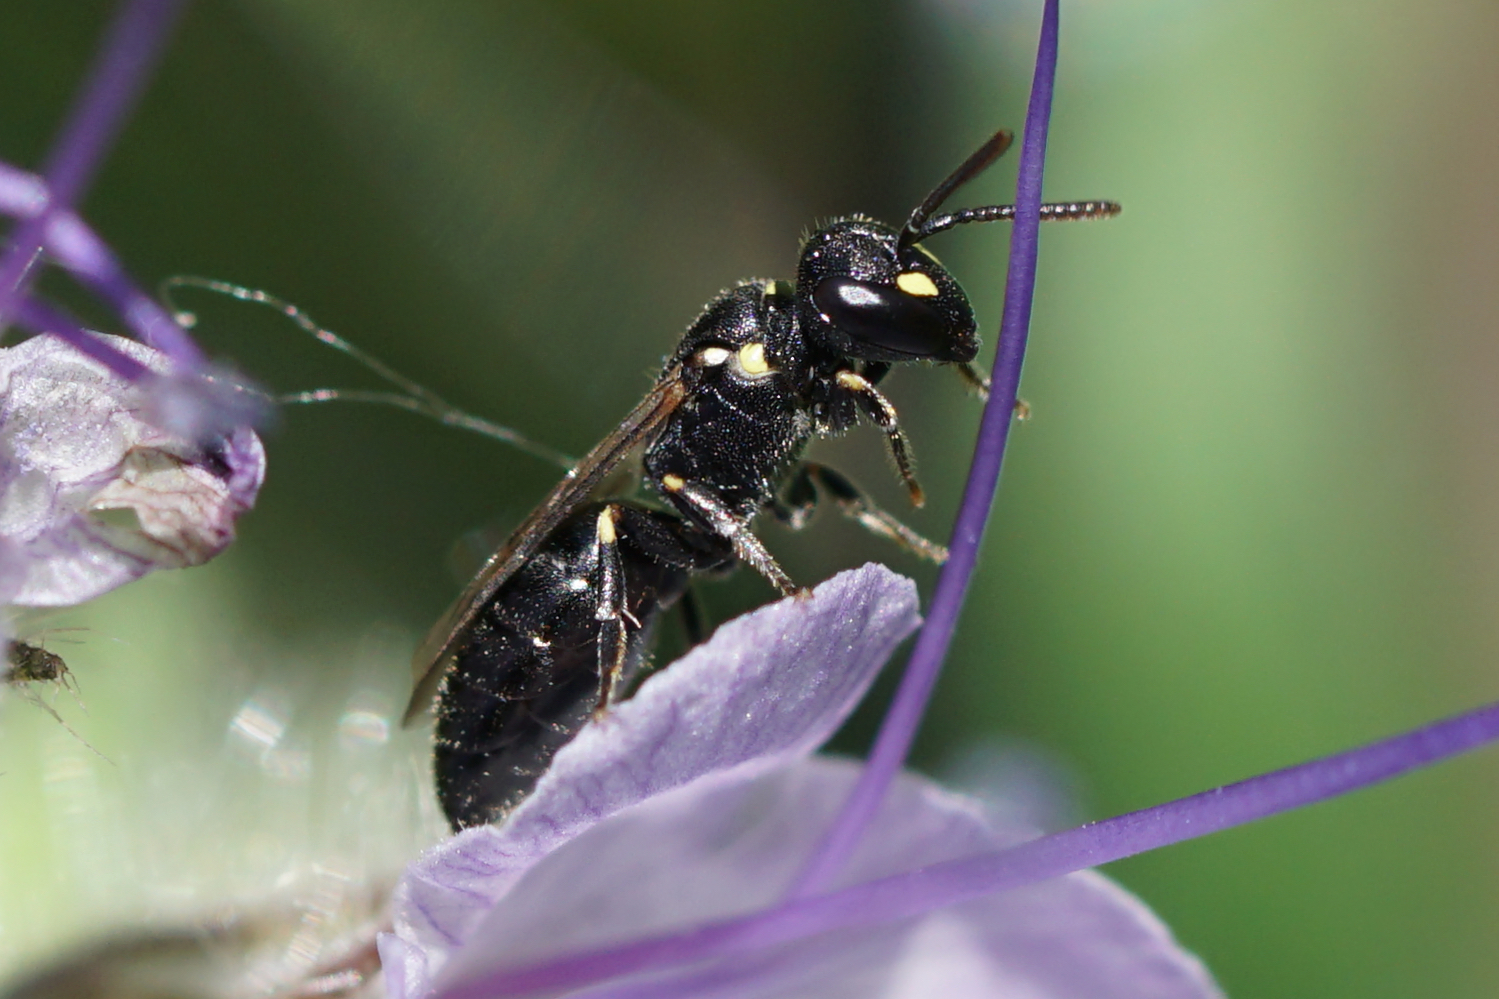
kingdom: Animalia
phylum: Arthropoda
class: Insecta
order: Hymenoptera
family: Colletidae
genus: Hylaeus
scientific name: Hylaeus pictipes
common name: Little yellow-face bee
